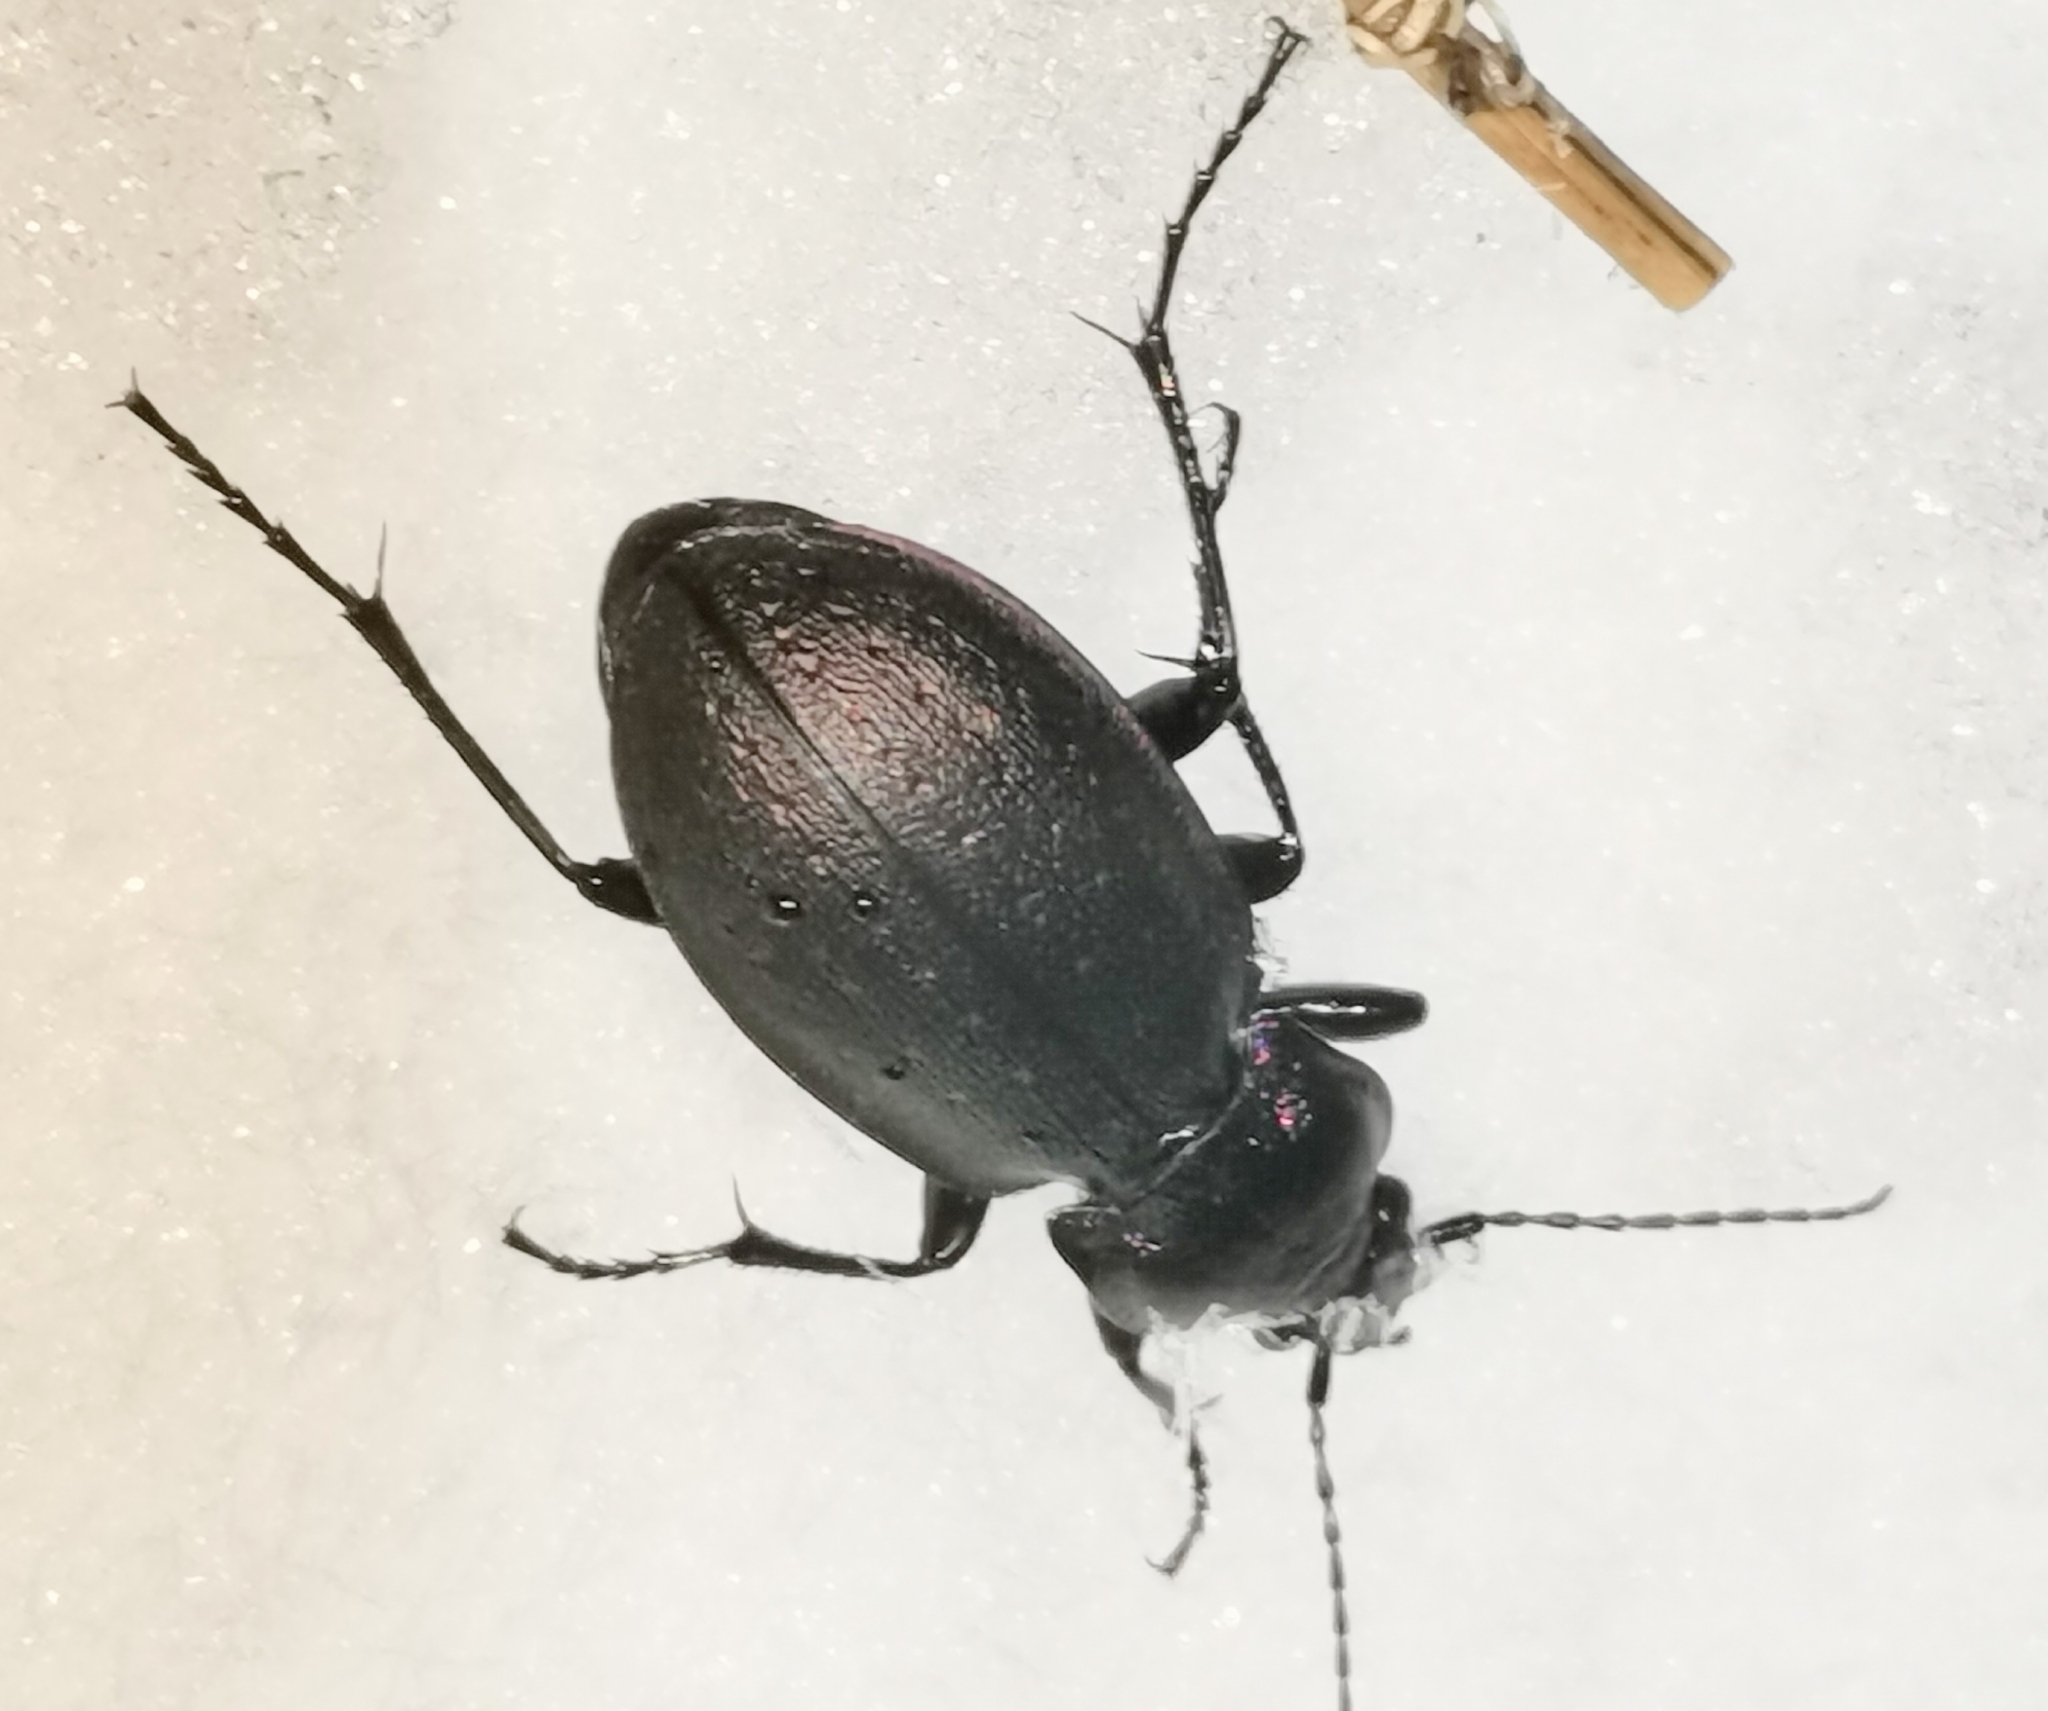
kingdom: Animalia
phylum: Arthropoda
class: Insecta
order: Coleoptera
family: Carabidae
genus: Carabus
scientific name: Carabus nemoralis
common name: European ground beetle
